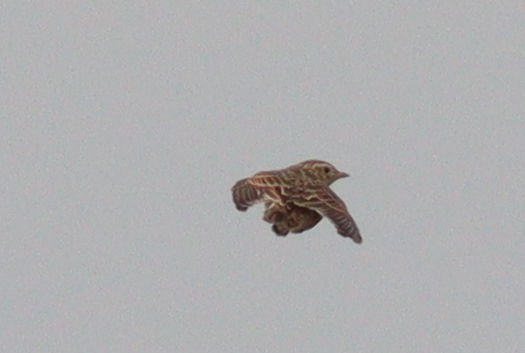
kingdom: Animalia
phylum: Chordata
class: Aves
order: Passeriformes
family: Alaudidae
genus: Alauda
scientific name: Alauda arvensis
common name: Eurasian skylark
